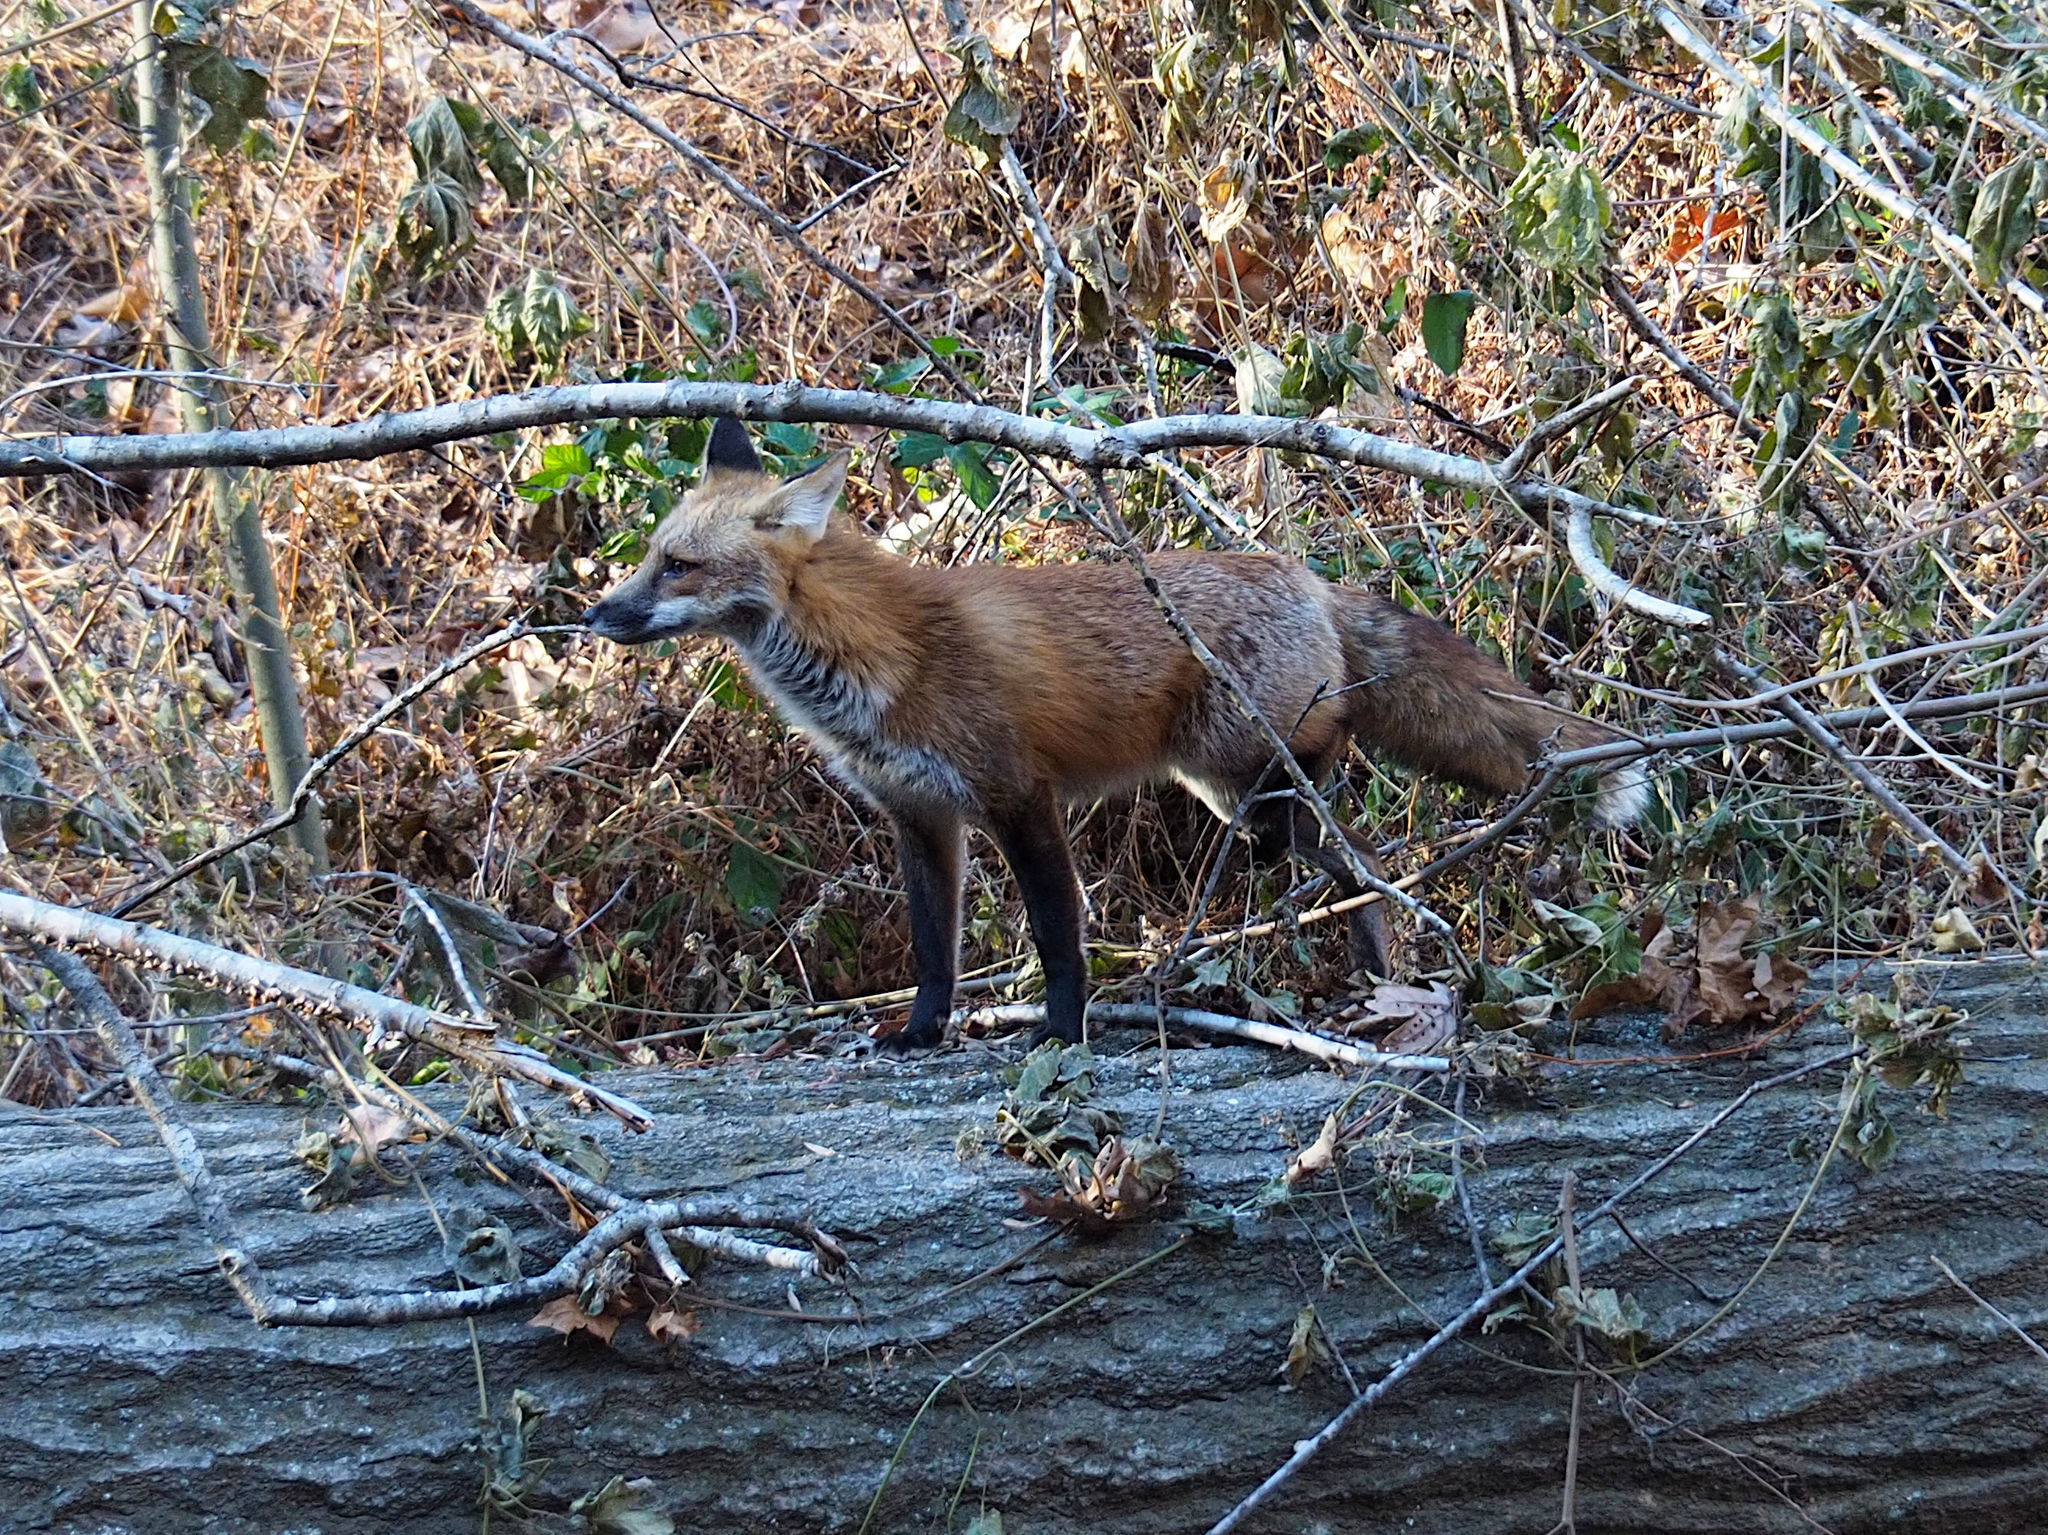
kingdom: Animalia
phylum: Chordata
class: Mammalia
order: Carnivora
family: Canidae
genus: Vulpes
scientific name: Vulpes vulpes
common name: Red fox
